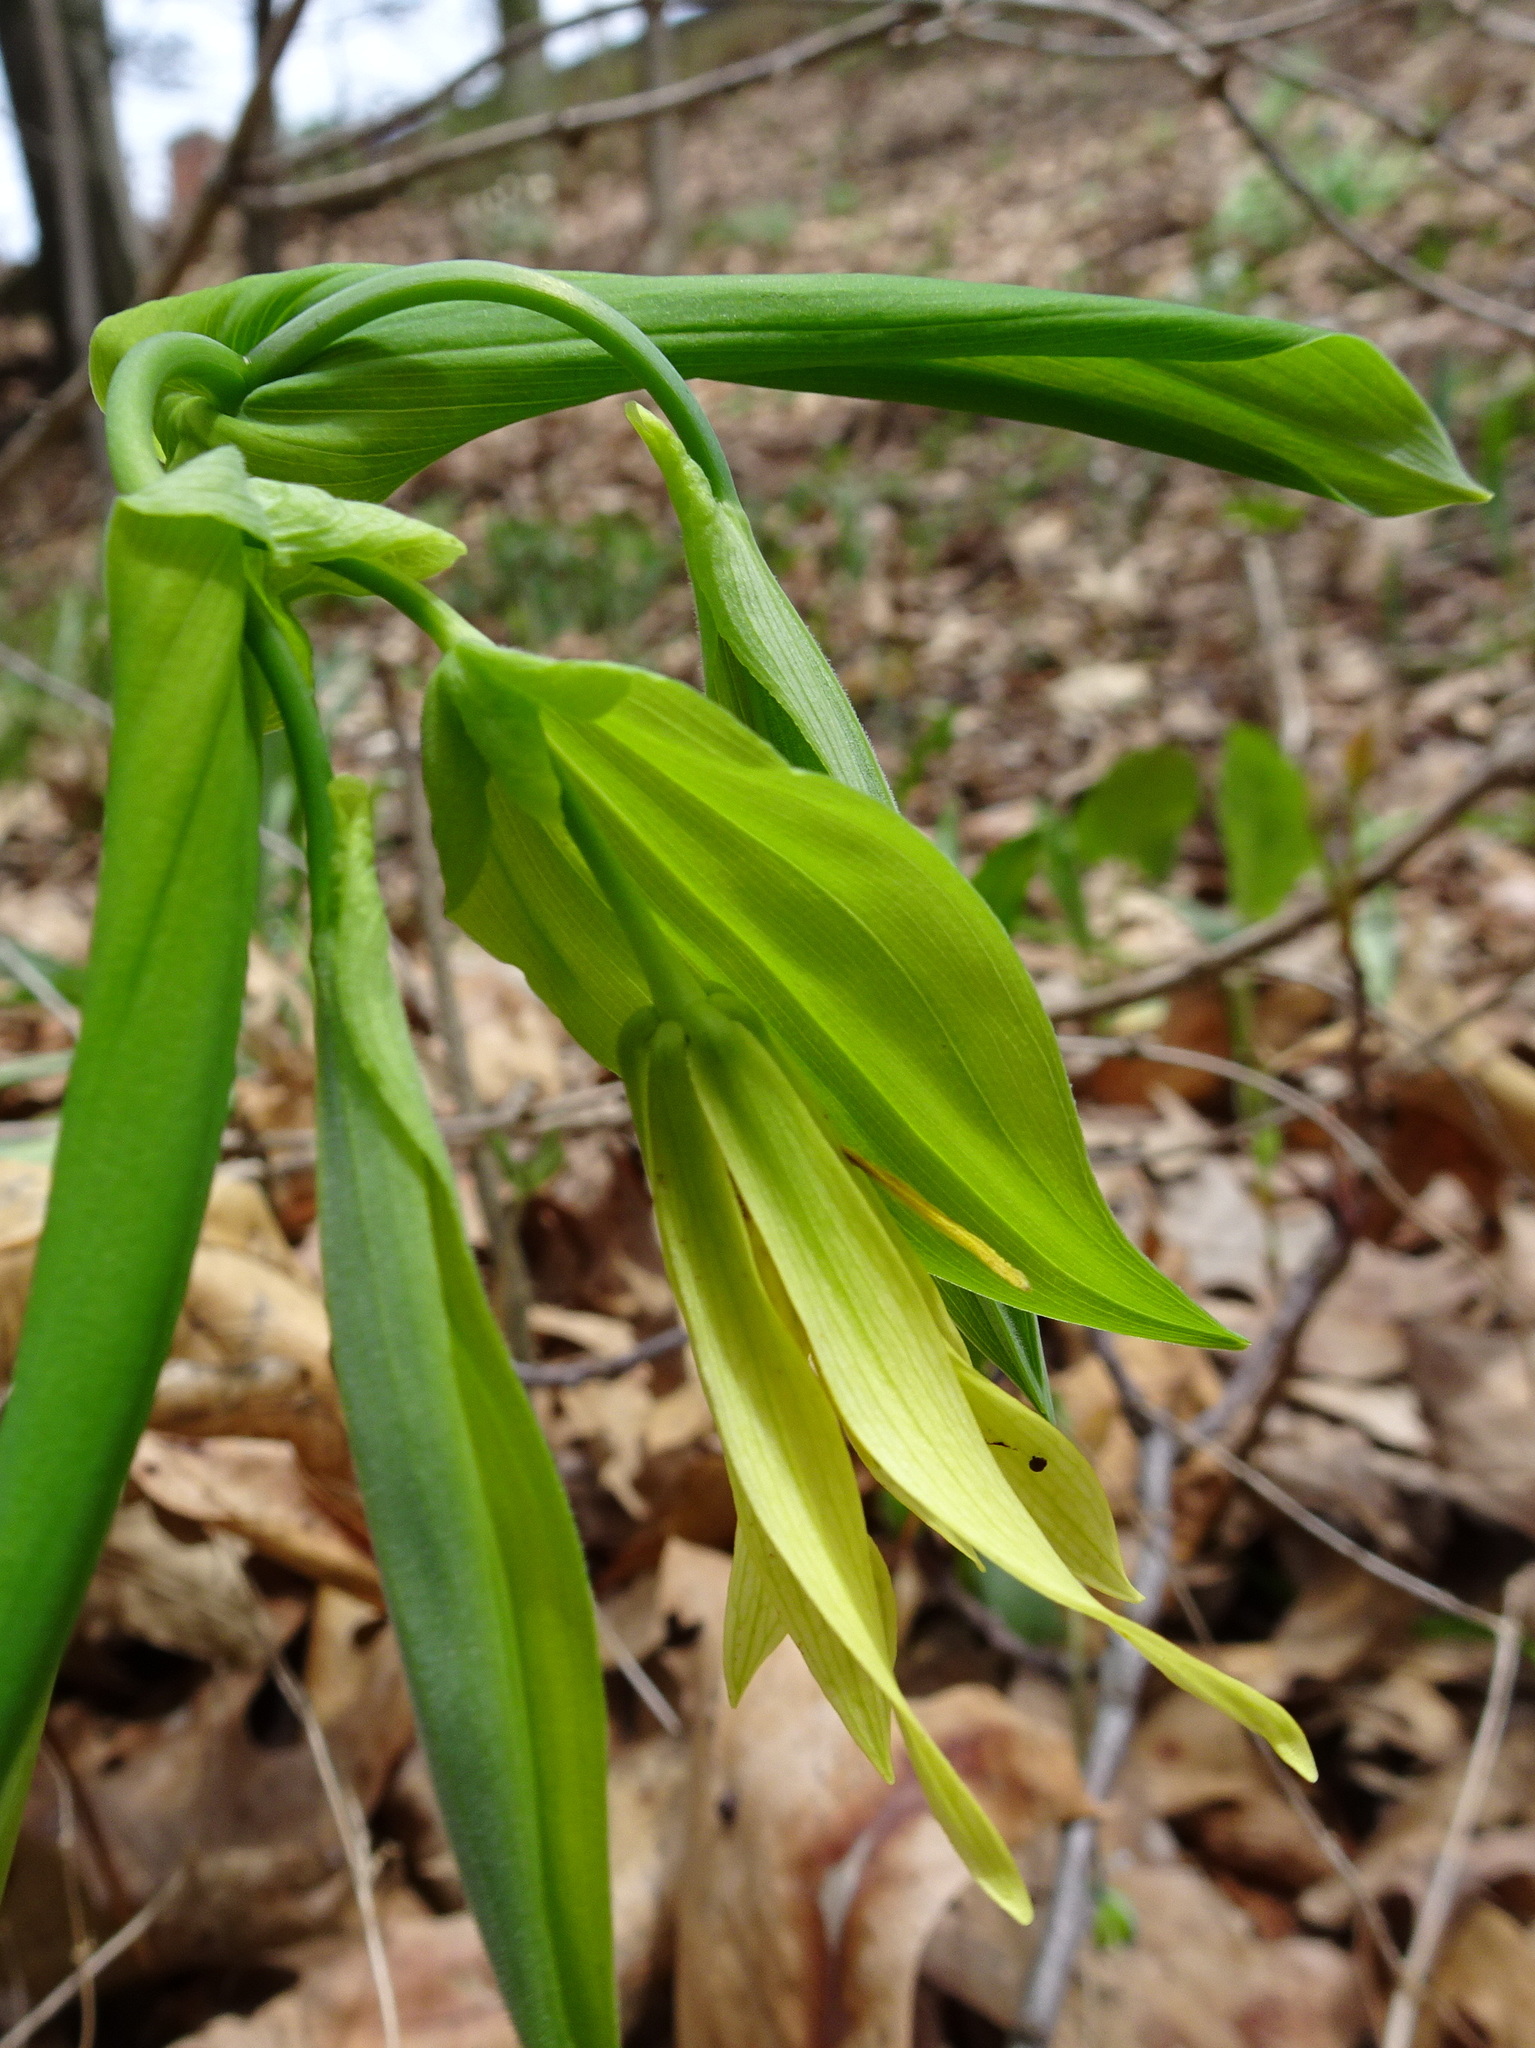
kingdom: Plantae
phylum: Tracheophyta
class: Liliopsida
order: Liliales
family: Colchicaceae
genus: Uvularia
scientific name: Uvularia grandiflora
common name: Bellwort
